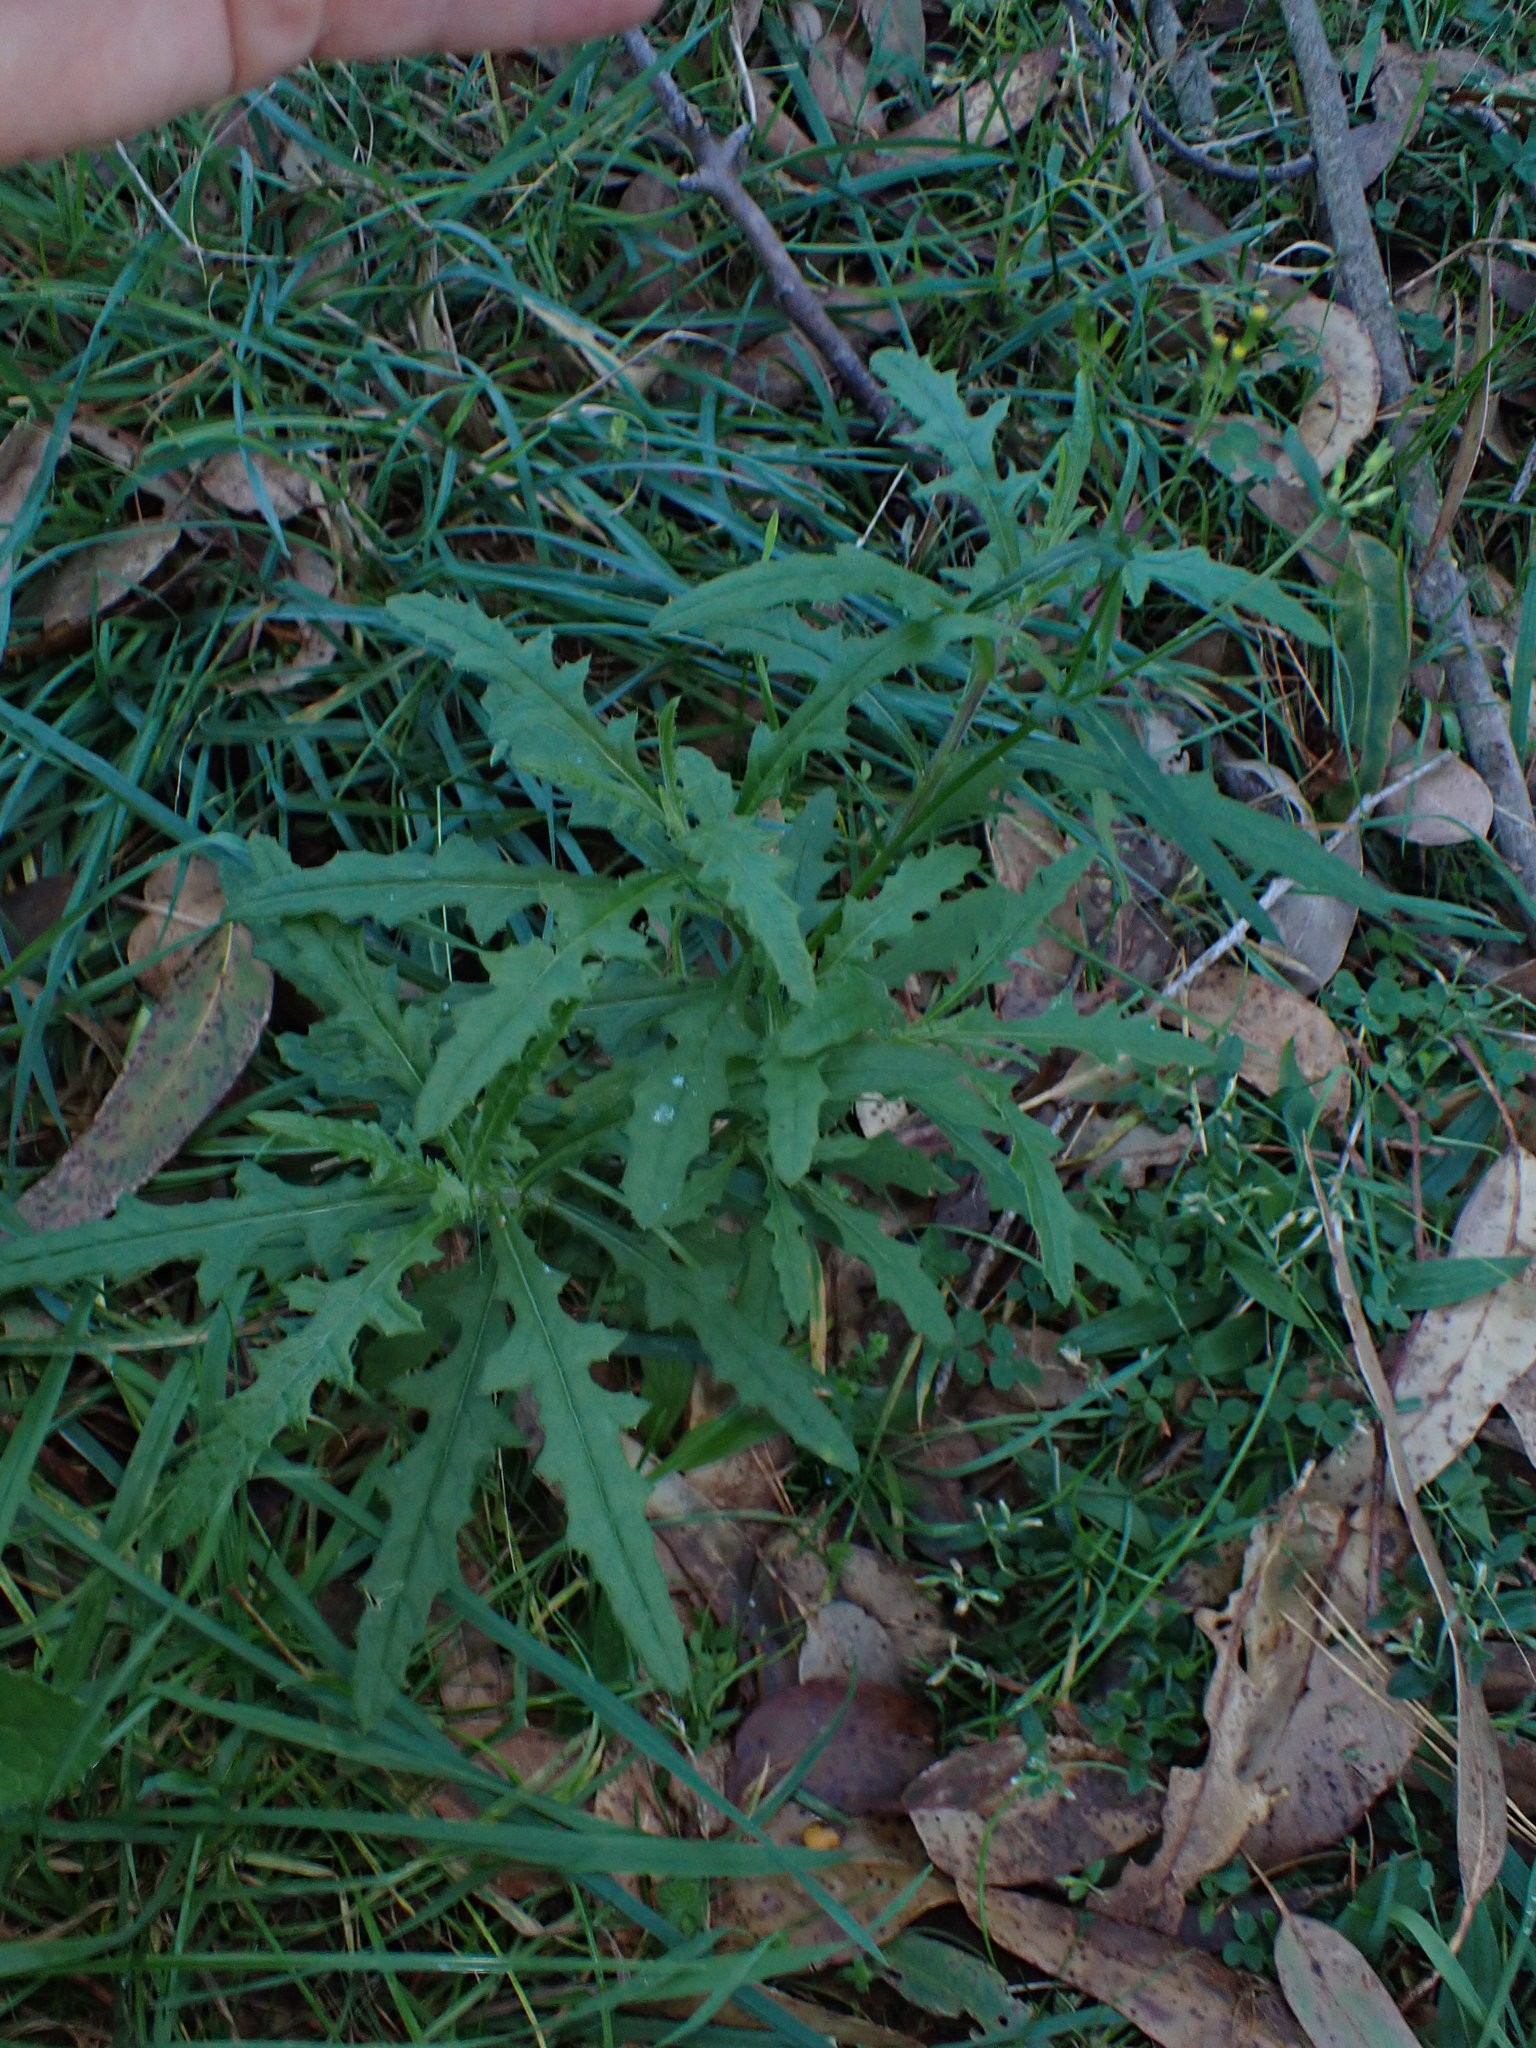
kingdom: Plantae
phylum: Tracheophyta
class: Magnoliopsida
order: Asterales
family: Asteraceae
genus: Senecio
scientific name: Senecio hispidulus
